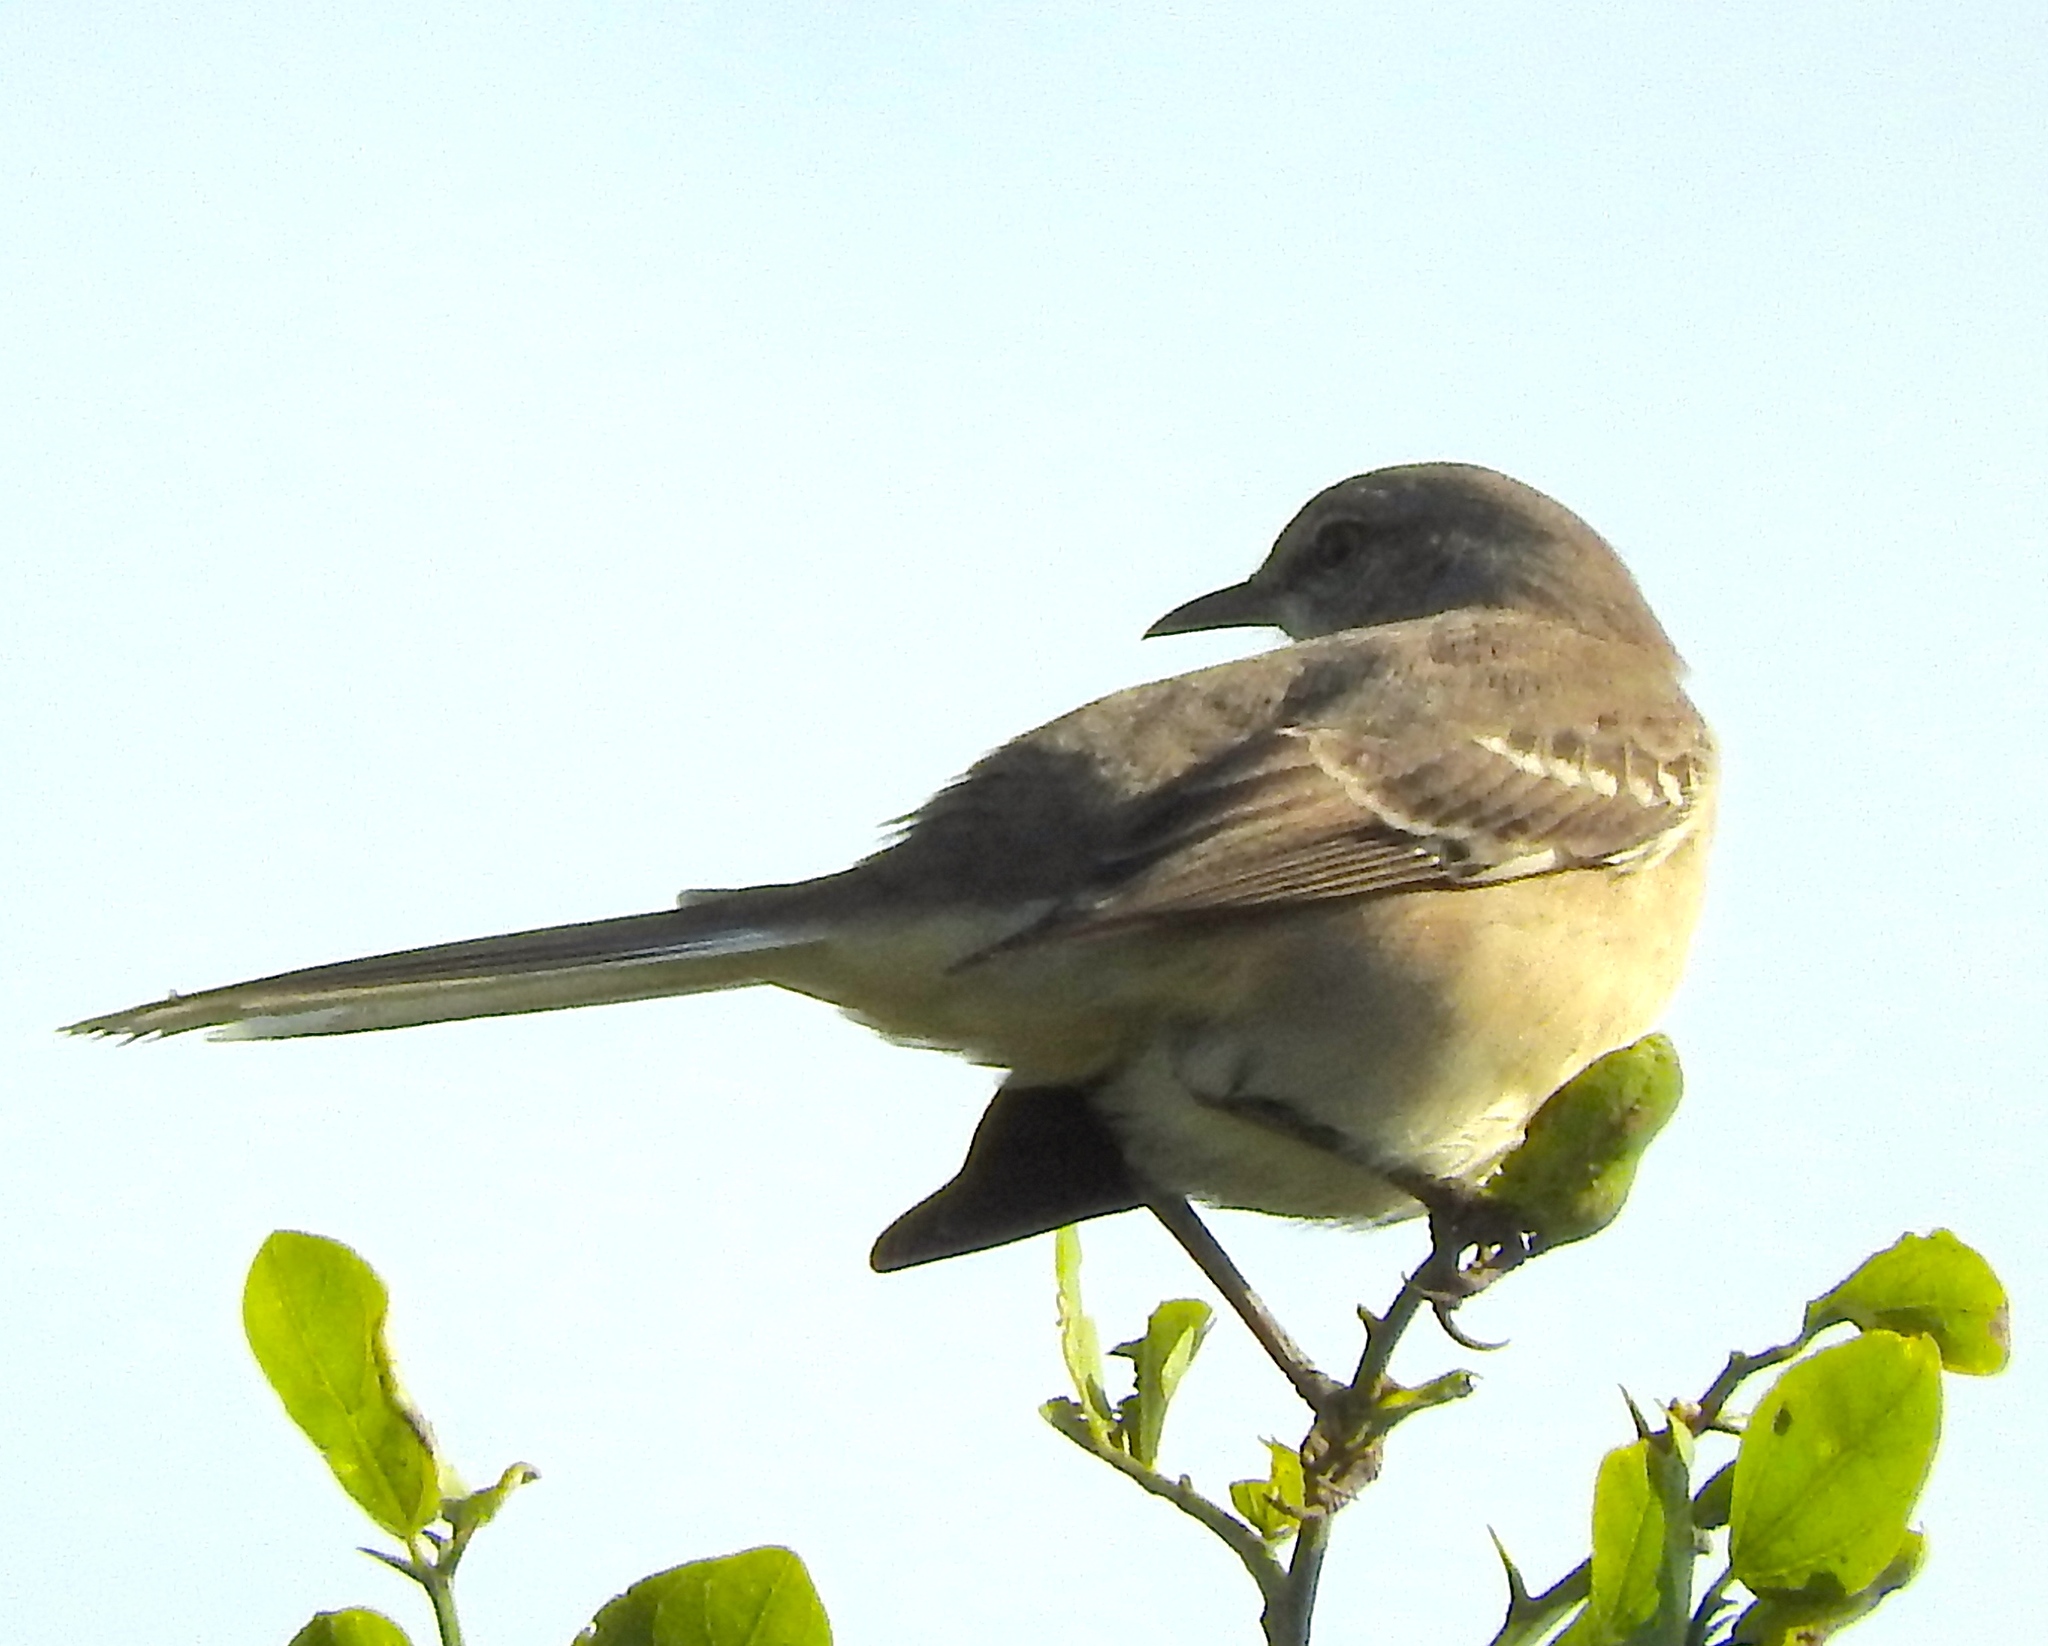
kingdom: Animalia
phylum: Chordata
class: Aves
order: Passeriformes
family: Mimidae
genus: Mimus
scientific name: Mimus polyglottos
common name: Northern mockingbird
